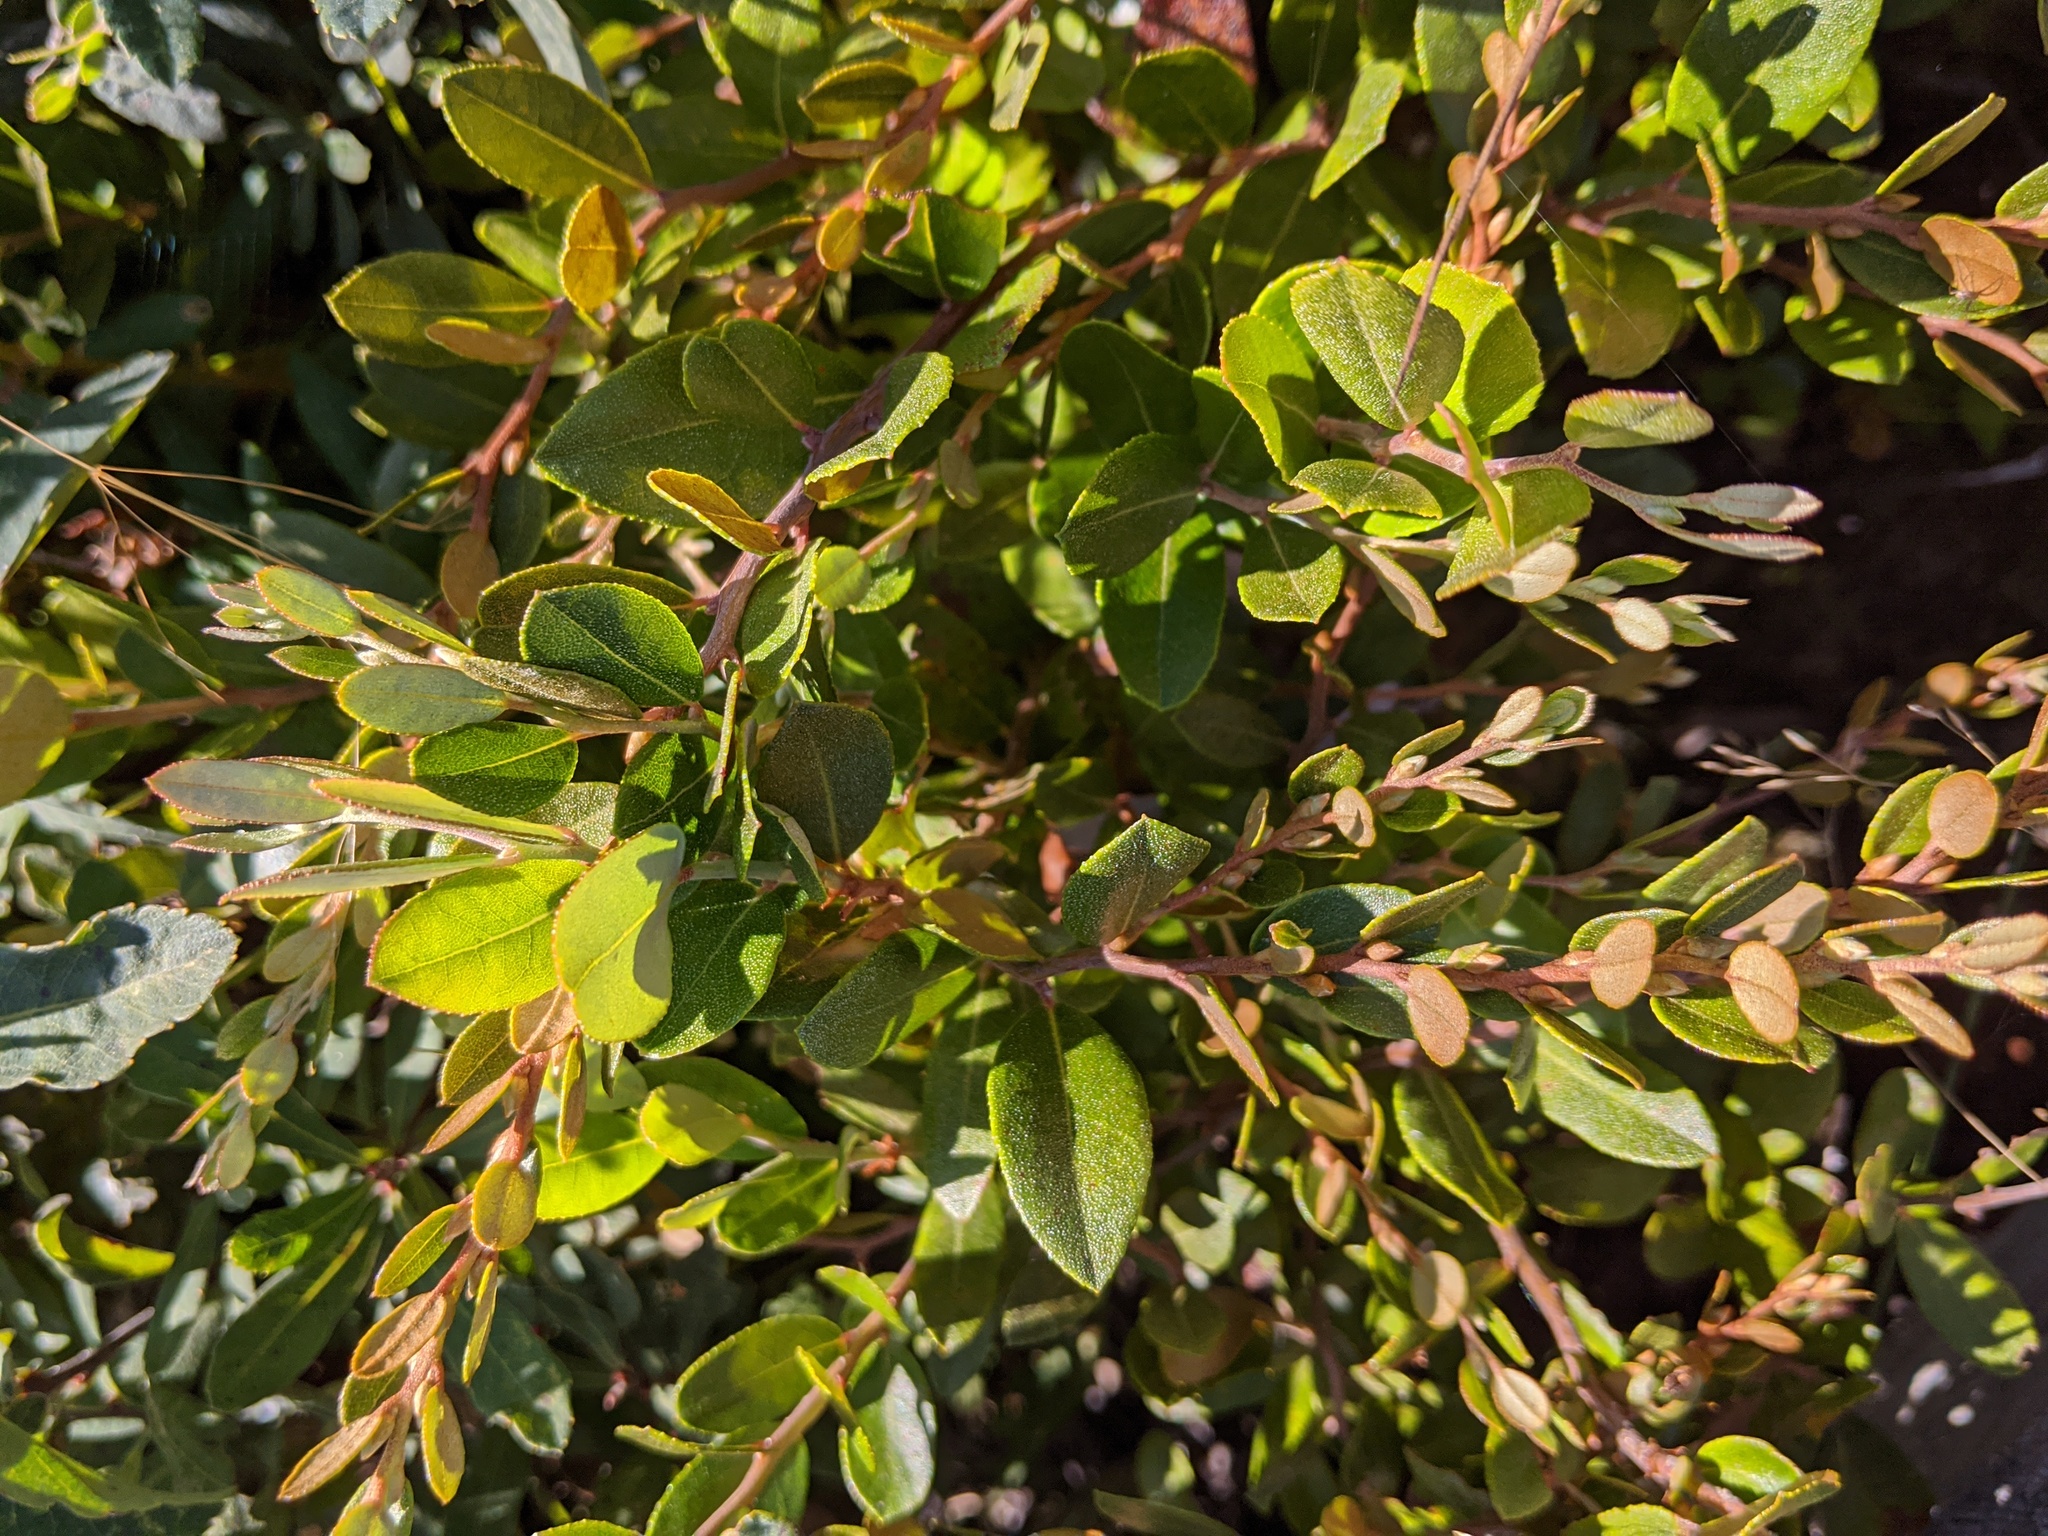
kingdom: Plantae
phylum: Tracheophyta
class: Magnoliopsida
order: Ericales
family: Ericaceae
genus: Chamaedaphne
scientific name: Chamaedaphne calyculata
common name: Leatherleaf
